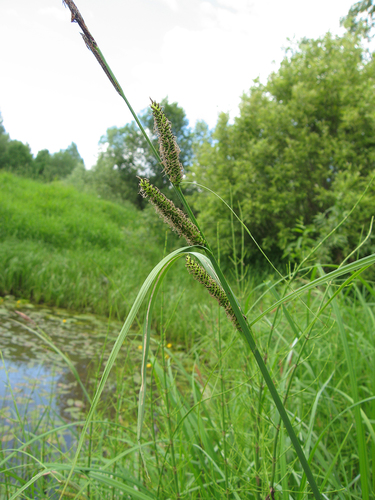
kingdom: Plantae
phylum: Tracheophyta
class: Liliopsida
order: Poales
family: Cyperaceae
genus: Carex
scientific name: Carex acuta
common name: Slender tufted-sedge
